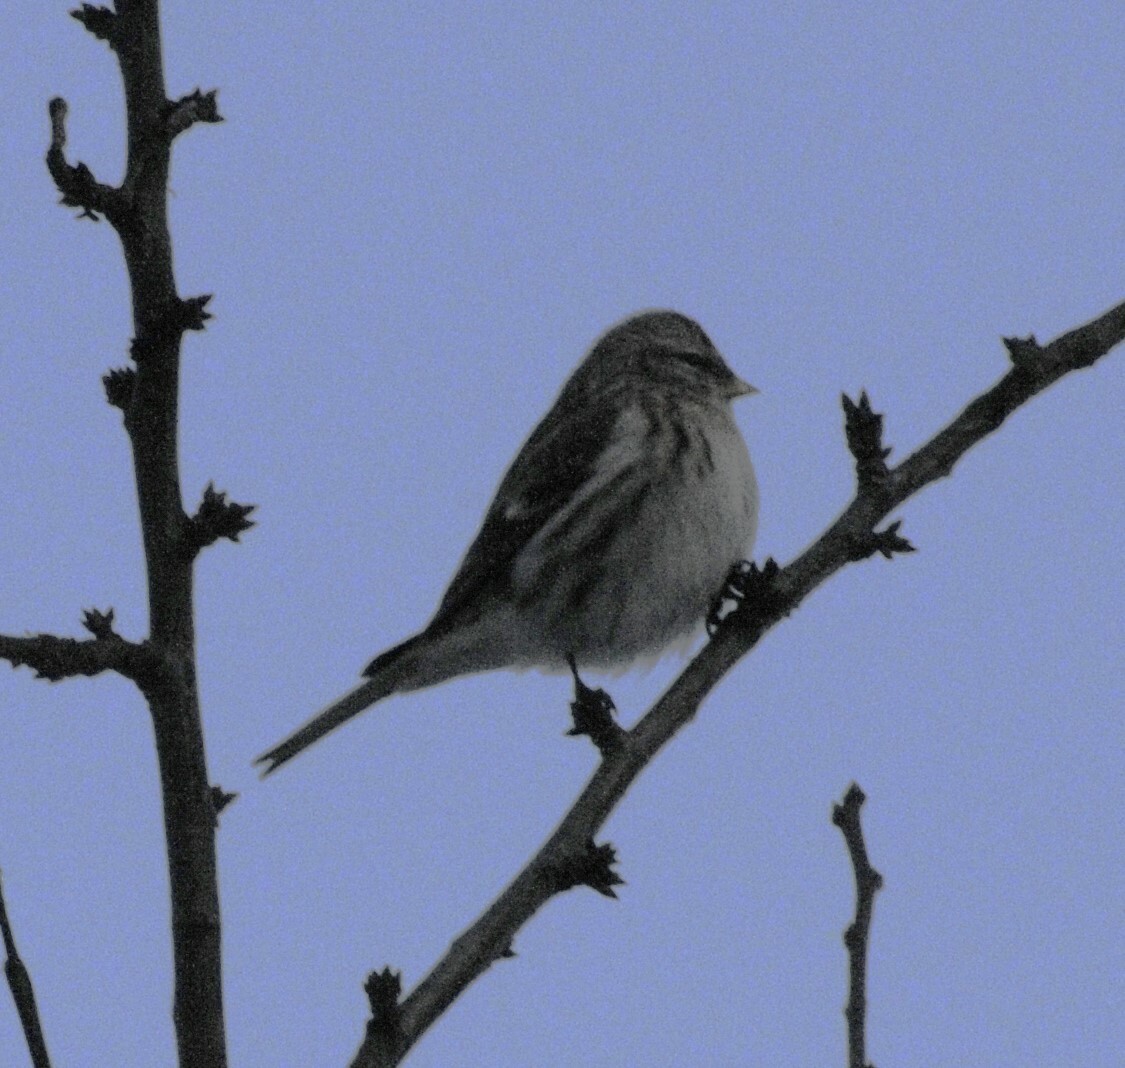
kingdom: Animalia
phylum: Chordata
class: Aves
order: Passeriformes
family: Fringillidae
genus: Acanthis
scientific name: Acanthis flammea
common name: Common redpoll
